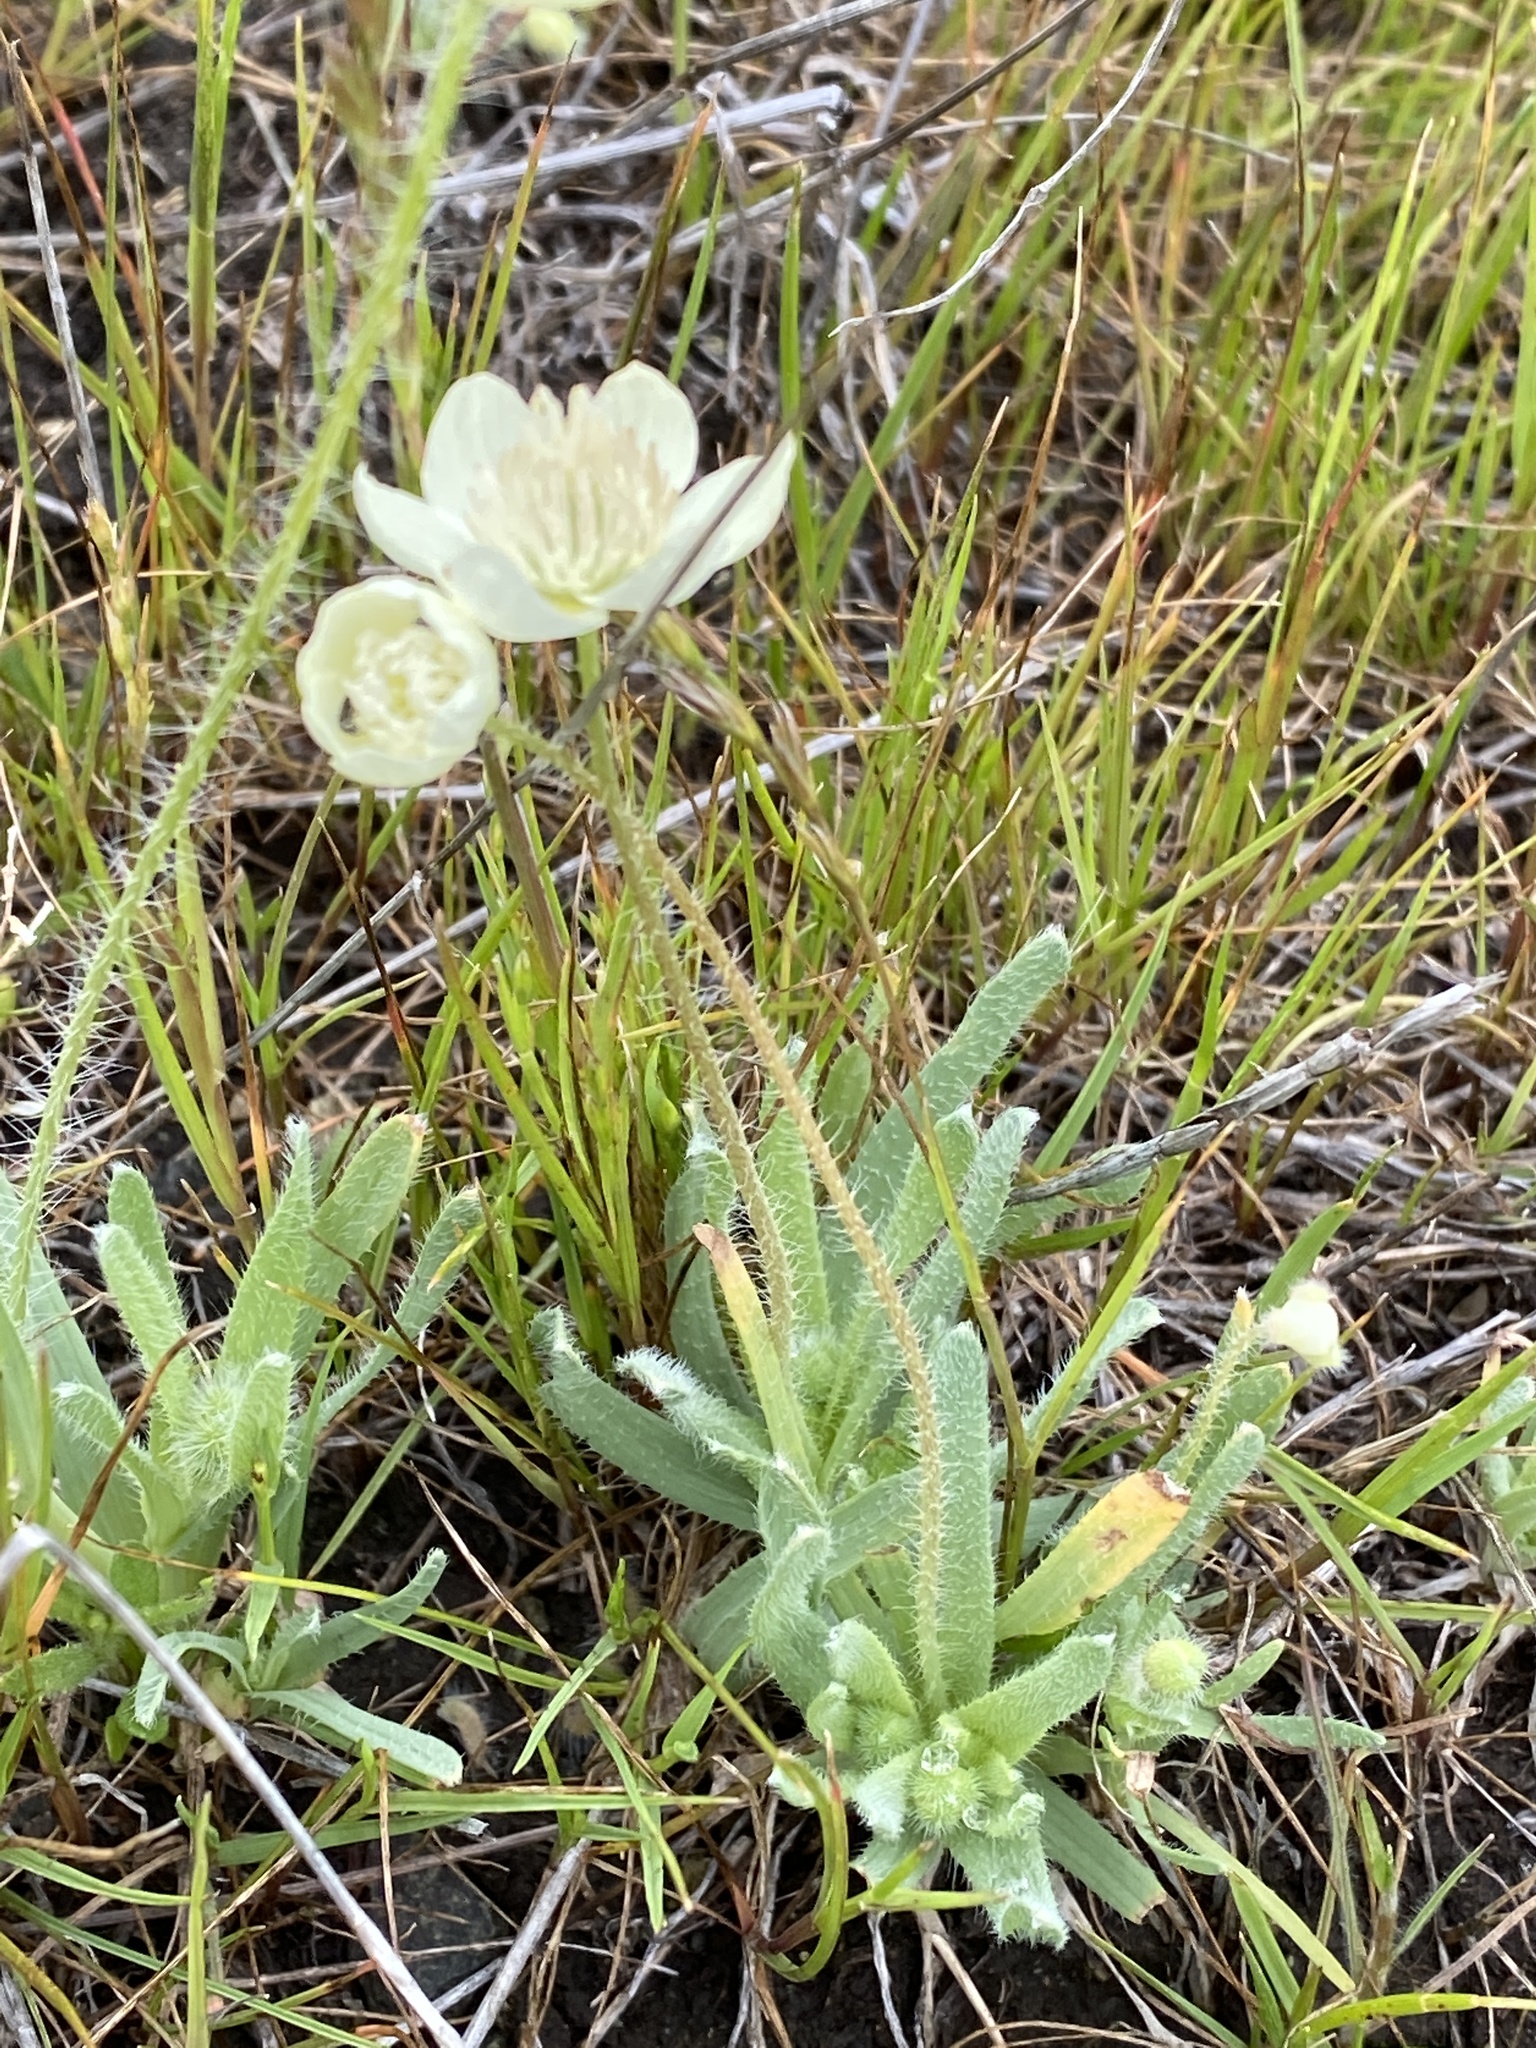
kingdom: Plantae
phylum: Tracheophyta
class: Magnoliopsida
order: Ranunculales
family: Papaveraceae
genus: Platystemon
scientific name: Platystemon californicus
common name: Cream-cups
